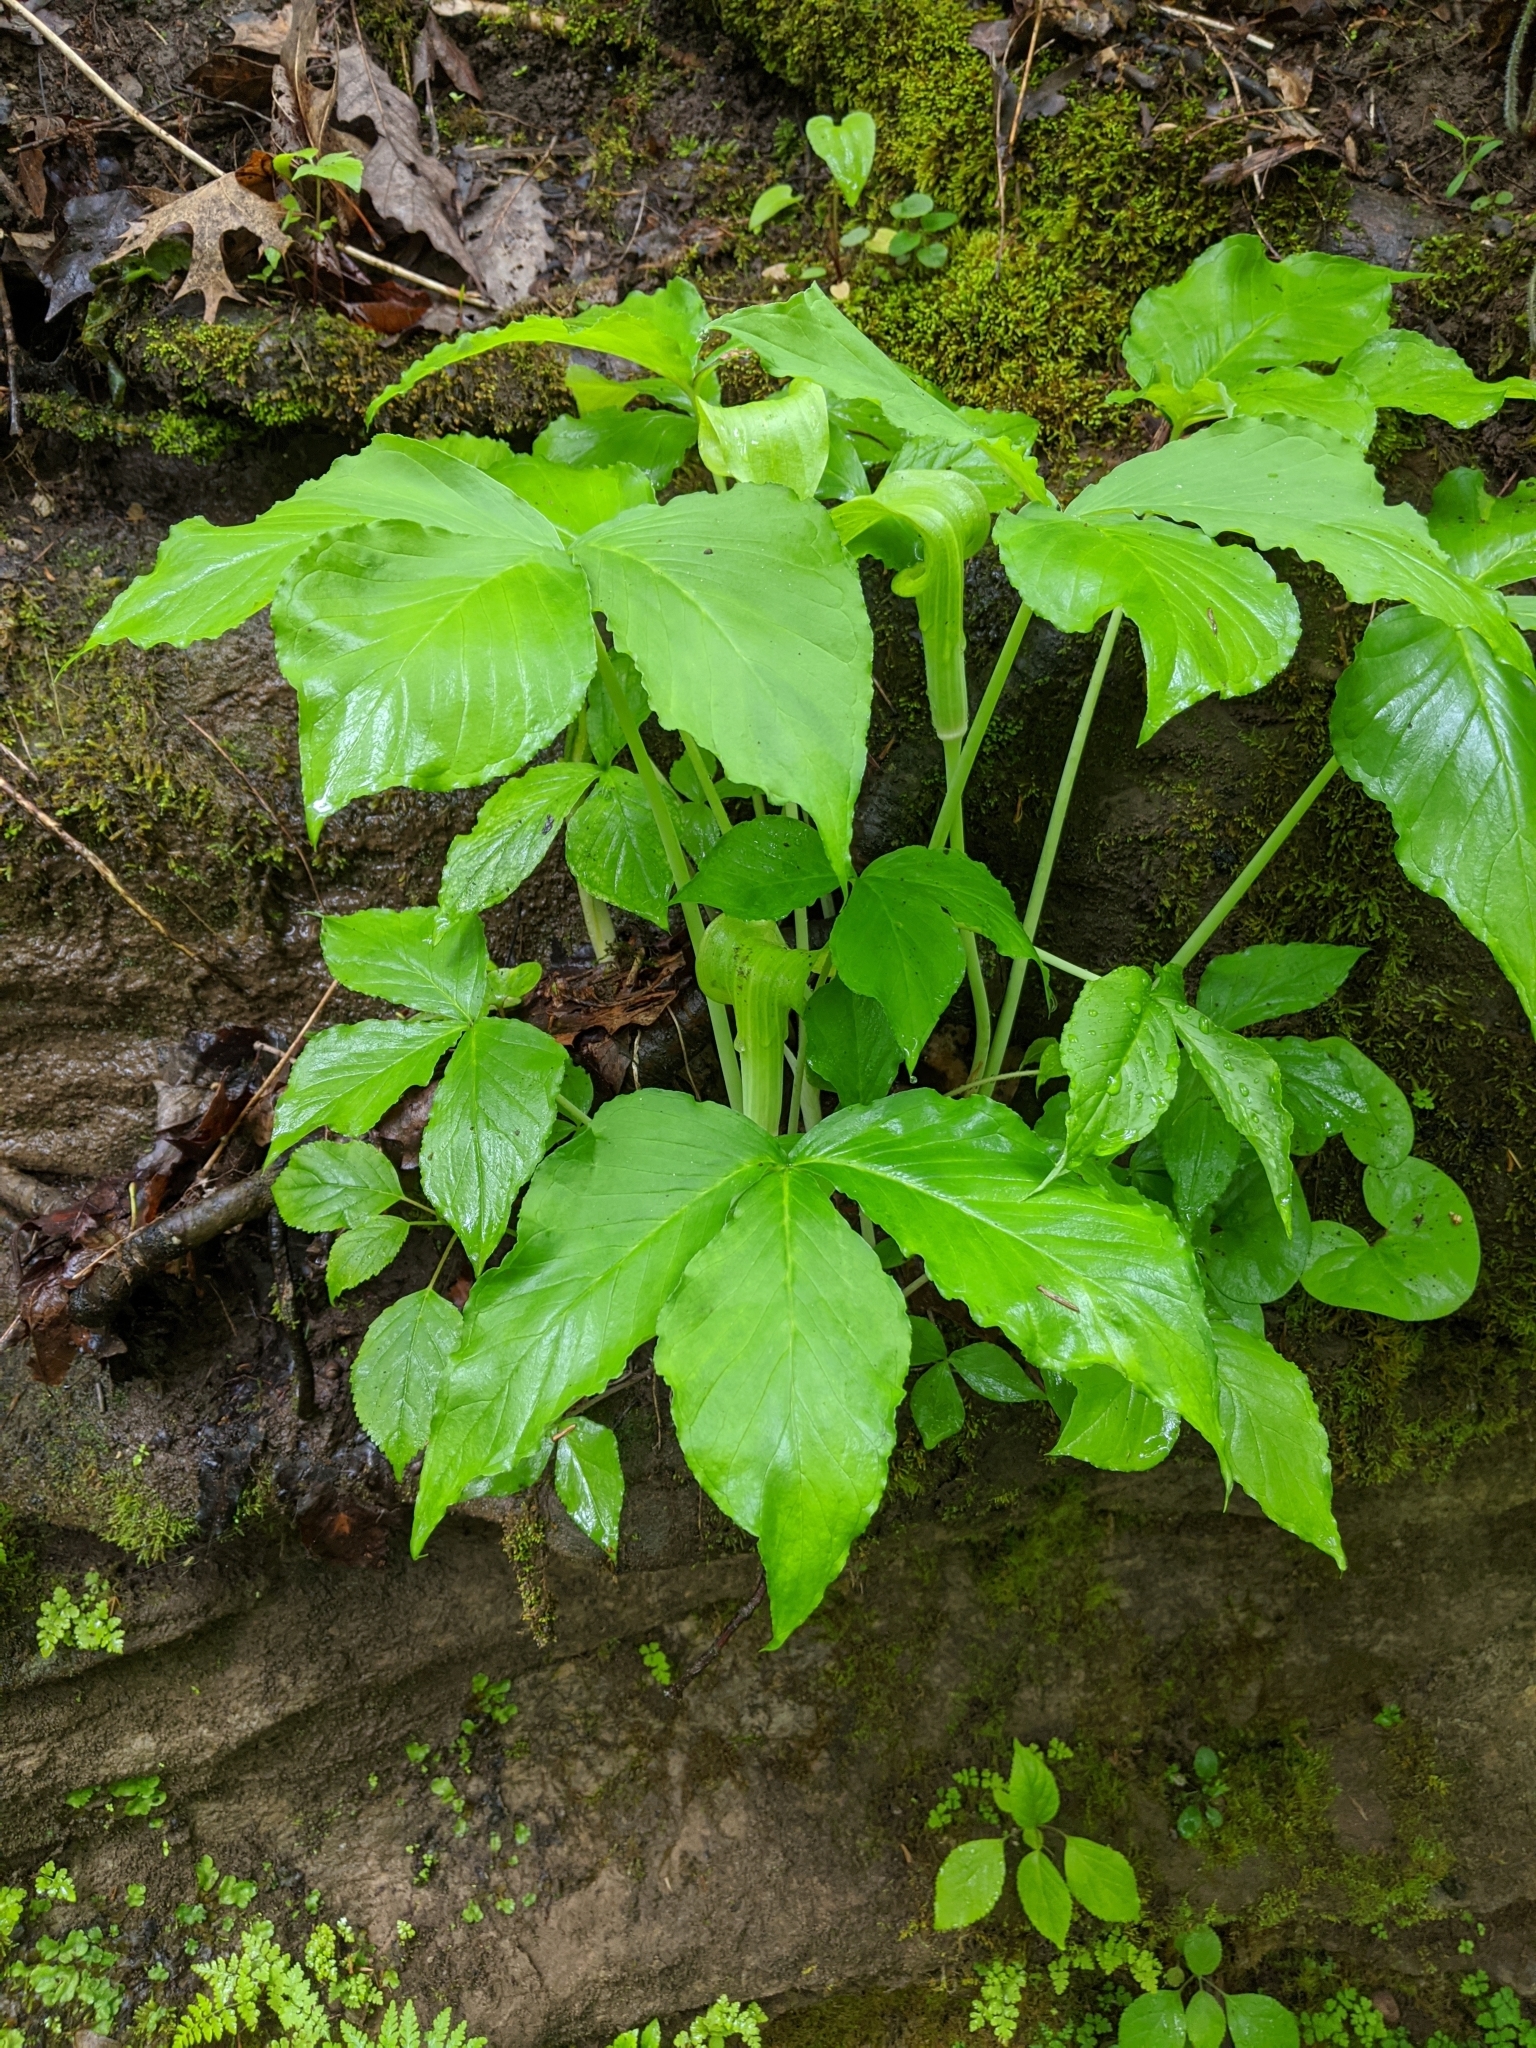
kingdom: Plantae
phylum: Tracheophyta
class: Liliopsida
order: Alismatales
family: Araceae
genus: Arisaema
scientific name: Arisaema triphyllum
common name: Jack-in-the-pulpit
